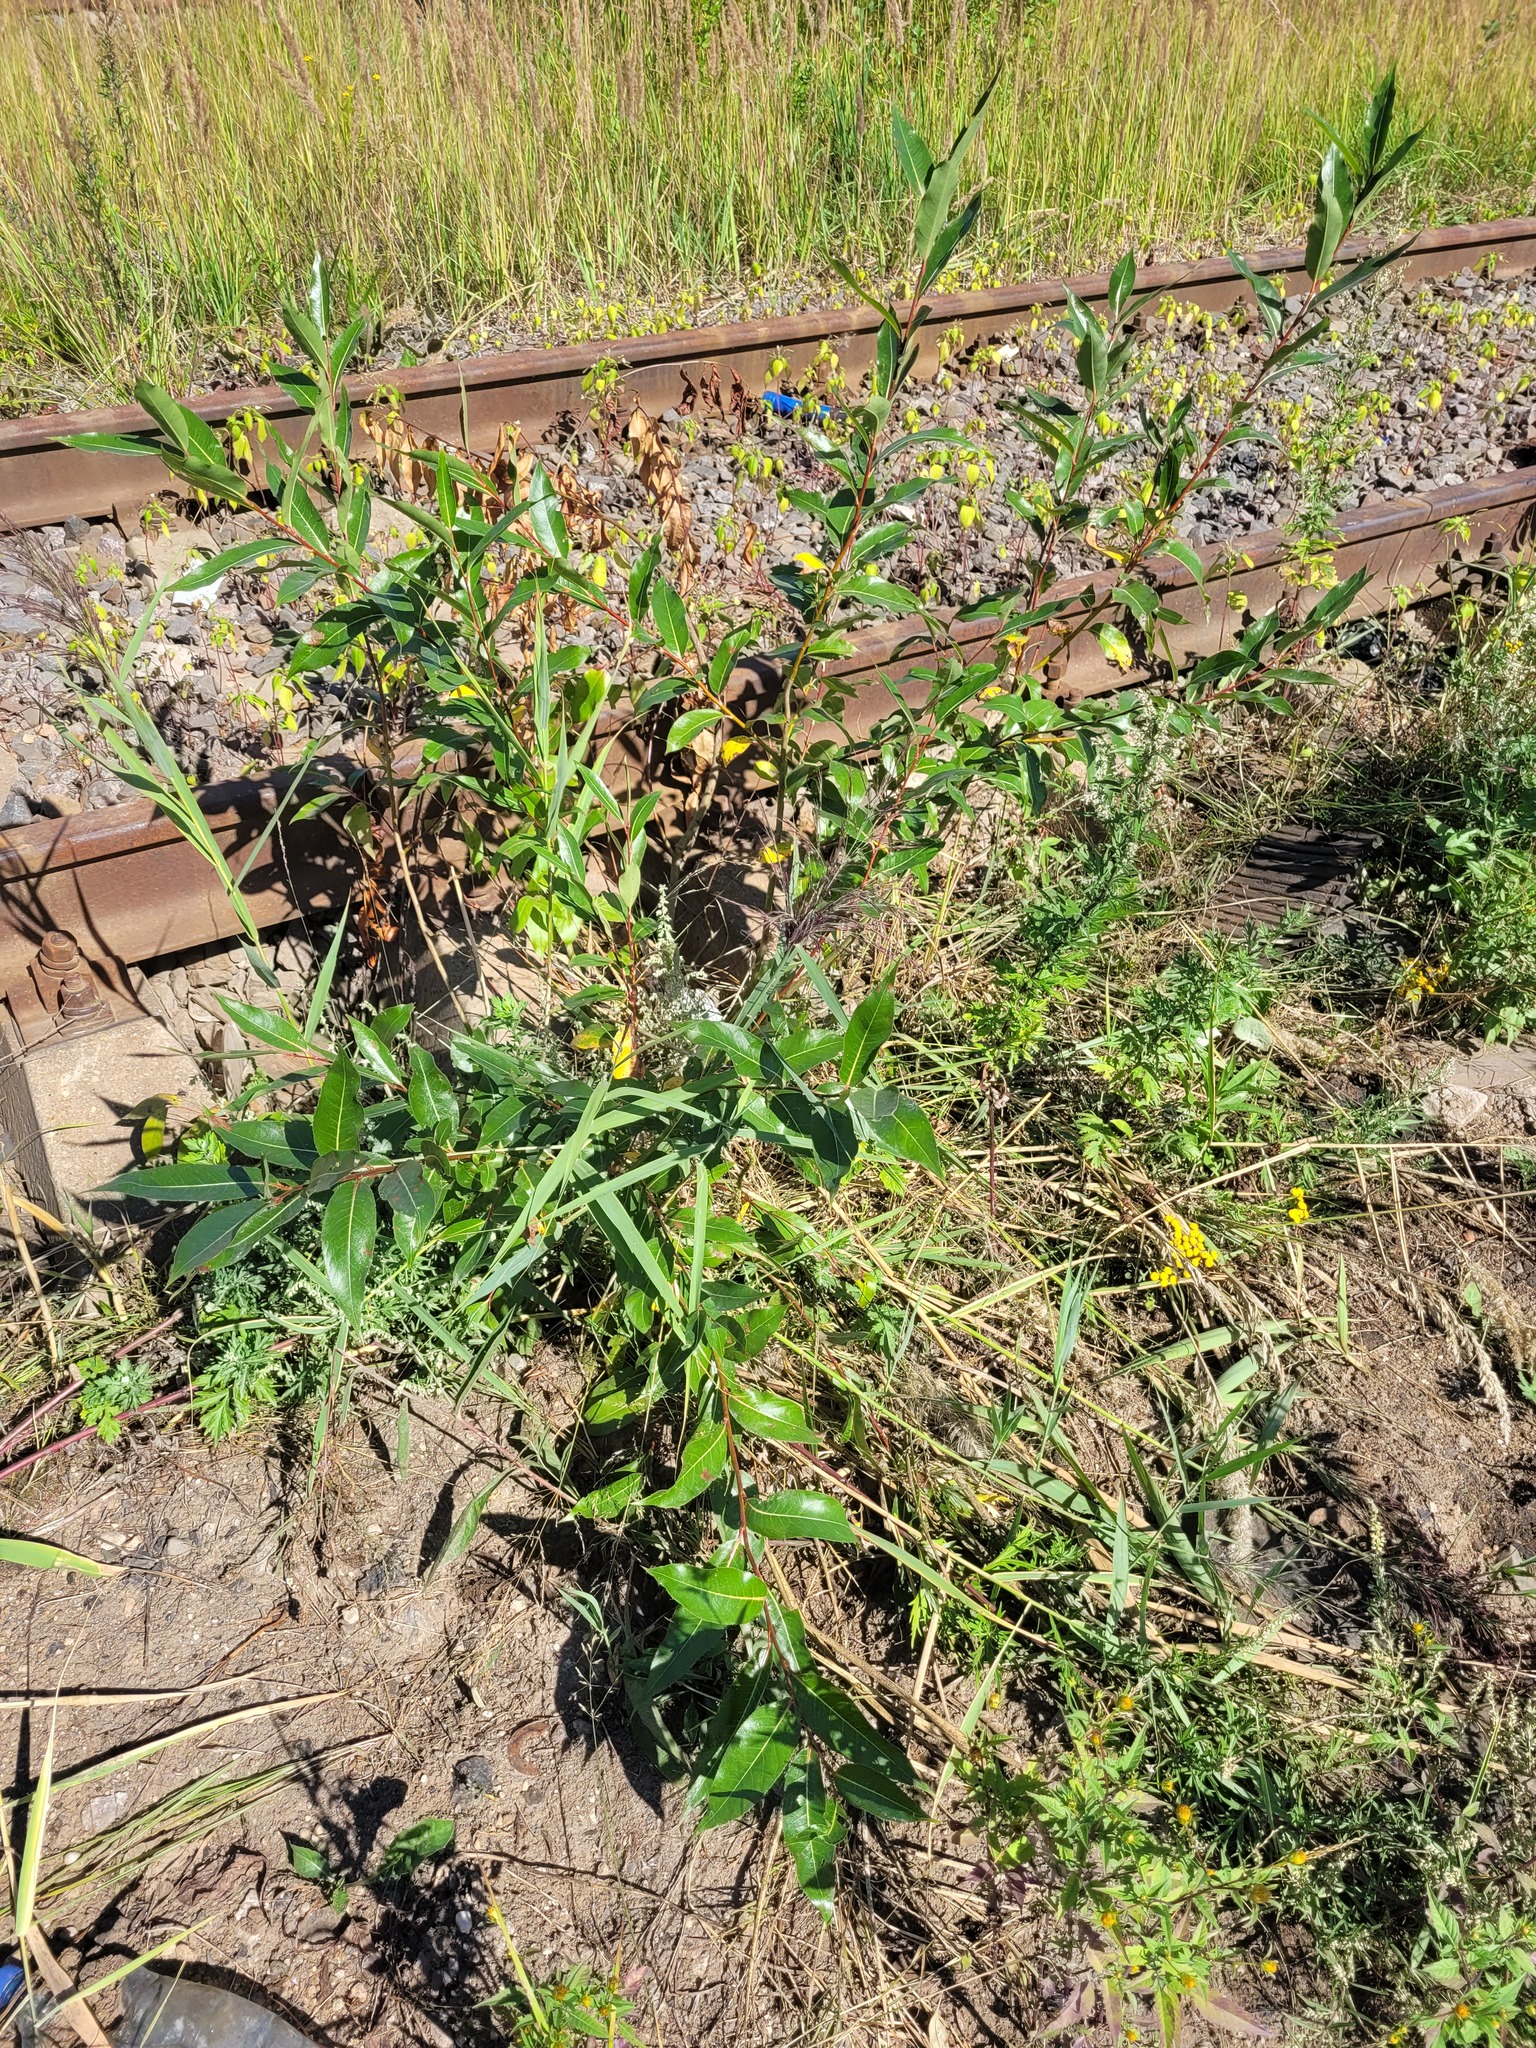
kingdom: Plantae
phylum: Tracheophyta
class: Magnoliopsida
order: Malpighiales
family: Salicaceae
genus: Salix
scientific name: Salix pentandra
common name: Bay willow
